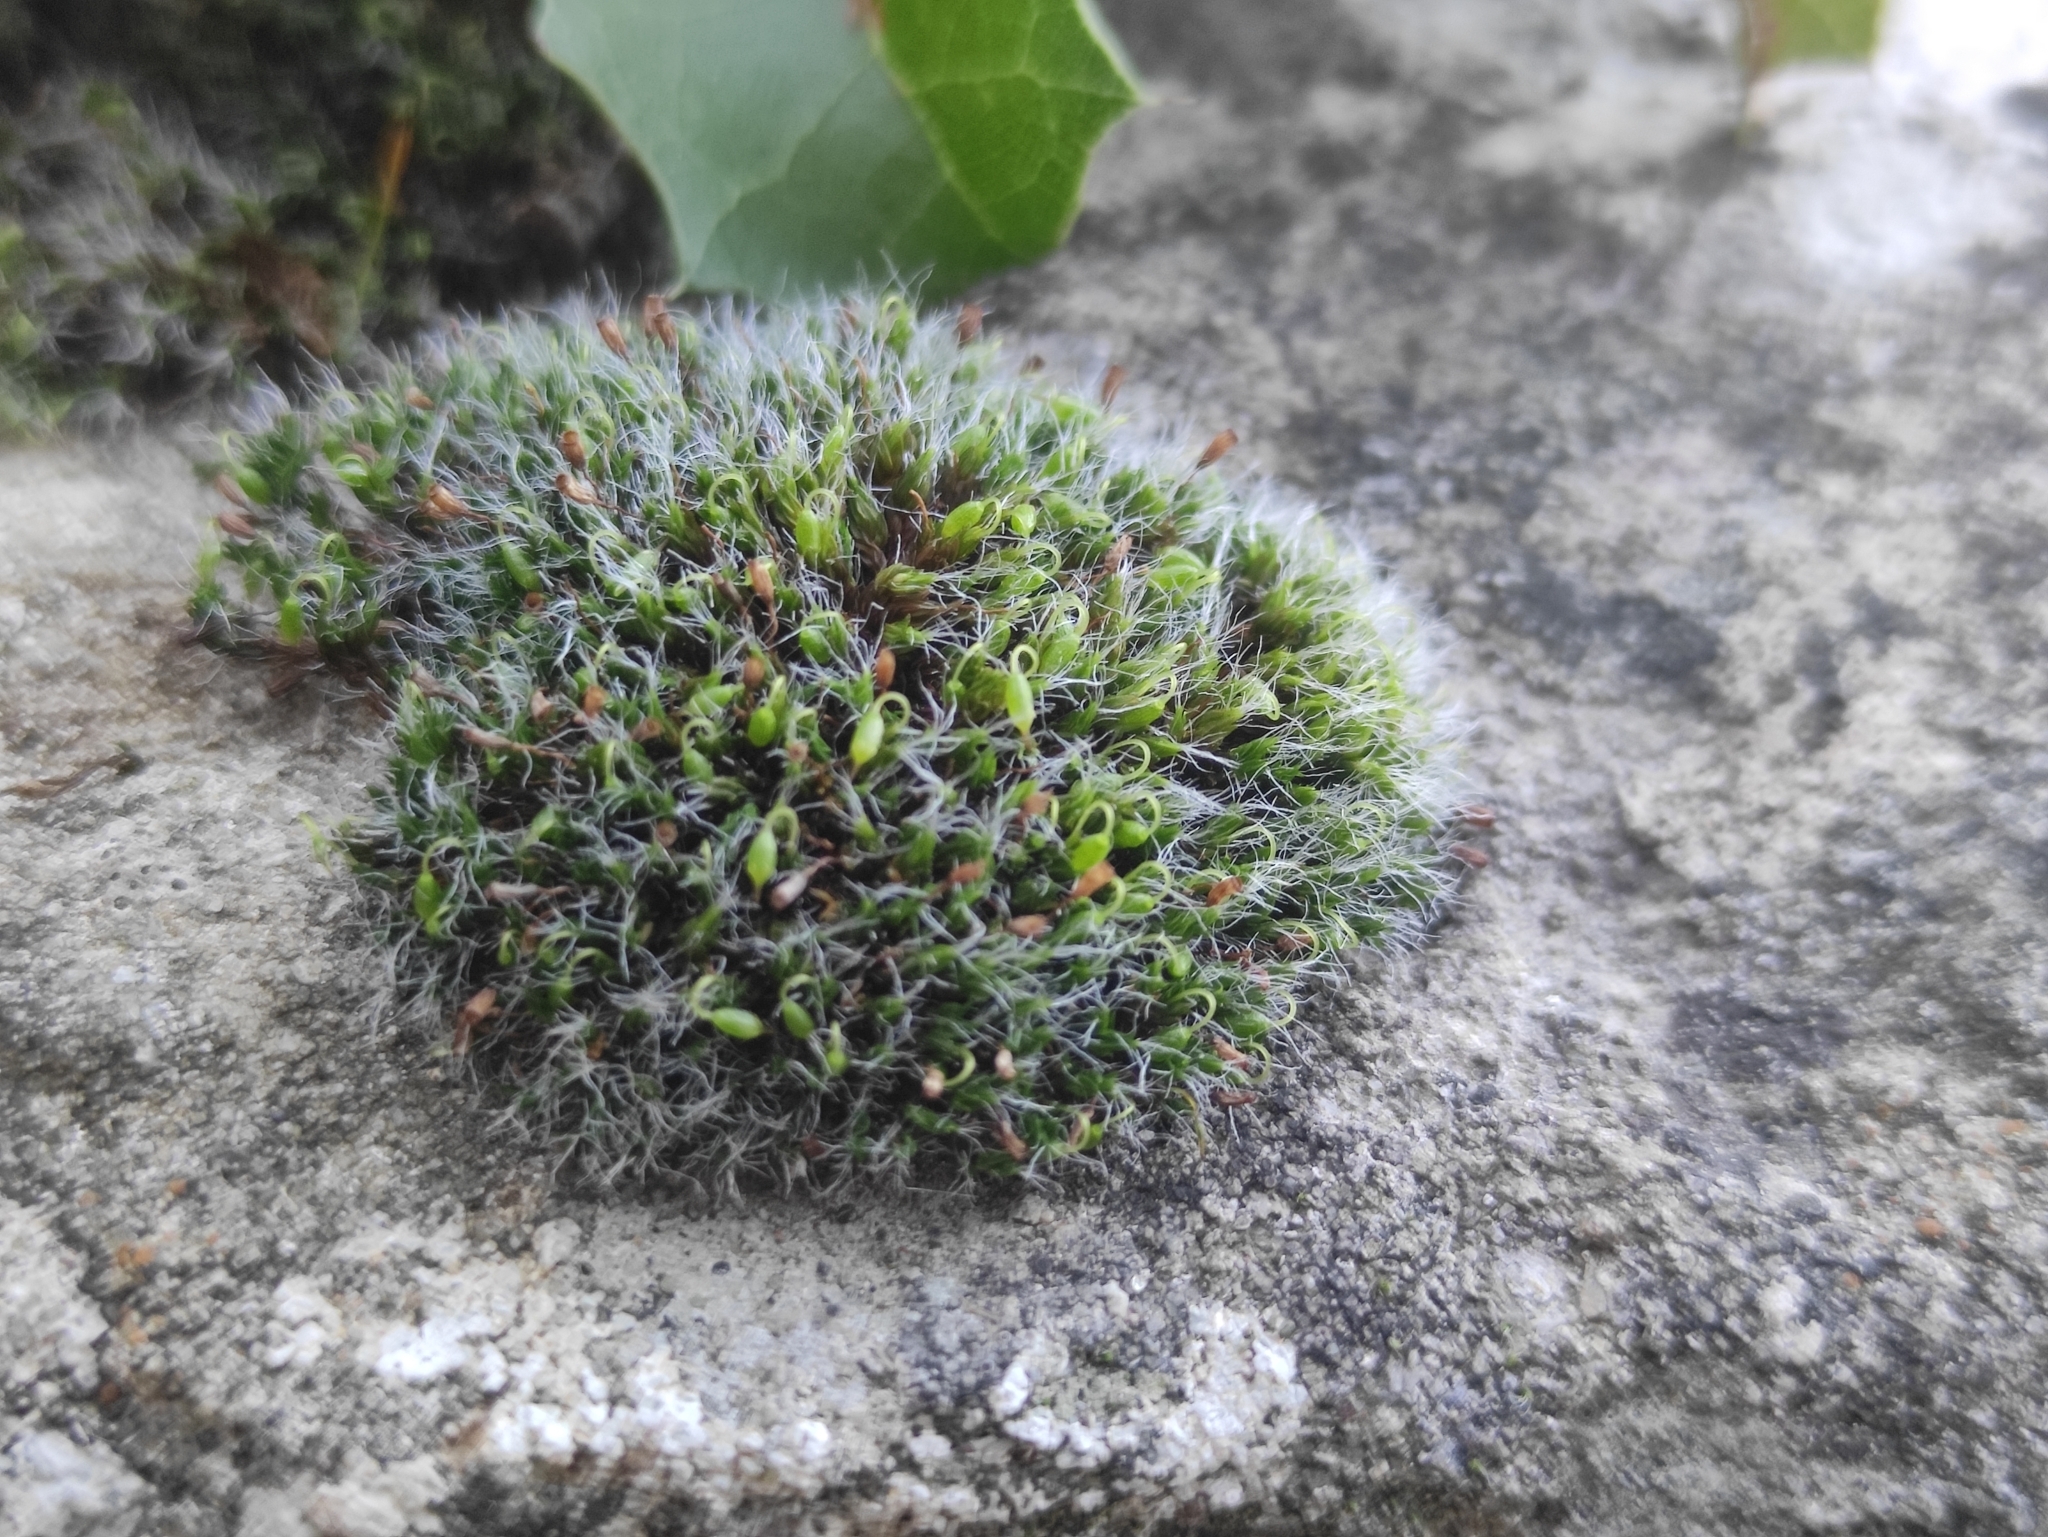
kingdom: Plantae
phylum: Bryophyta
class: Bryopsida
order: Grimmiales
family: Grimmiaceae
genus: Grimmia
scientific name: Grimmia pulvinata
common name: Grey-cushioned grimmia
